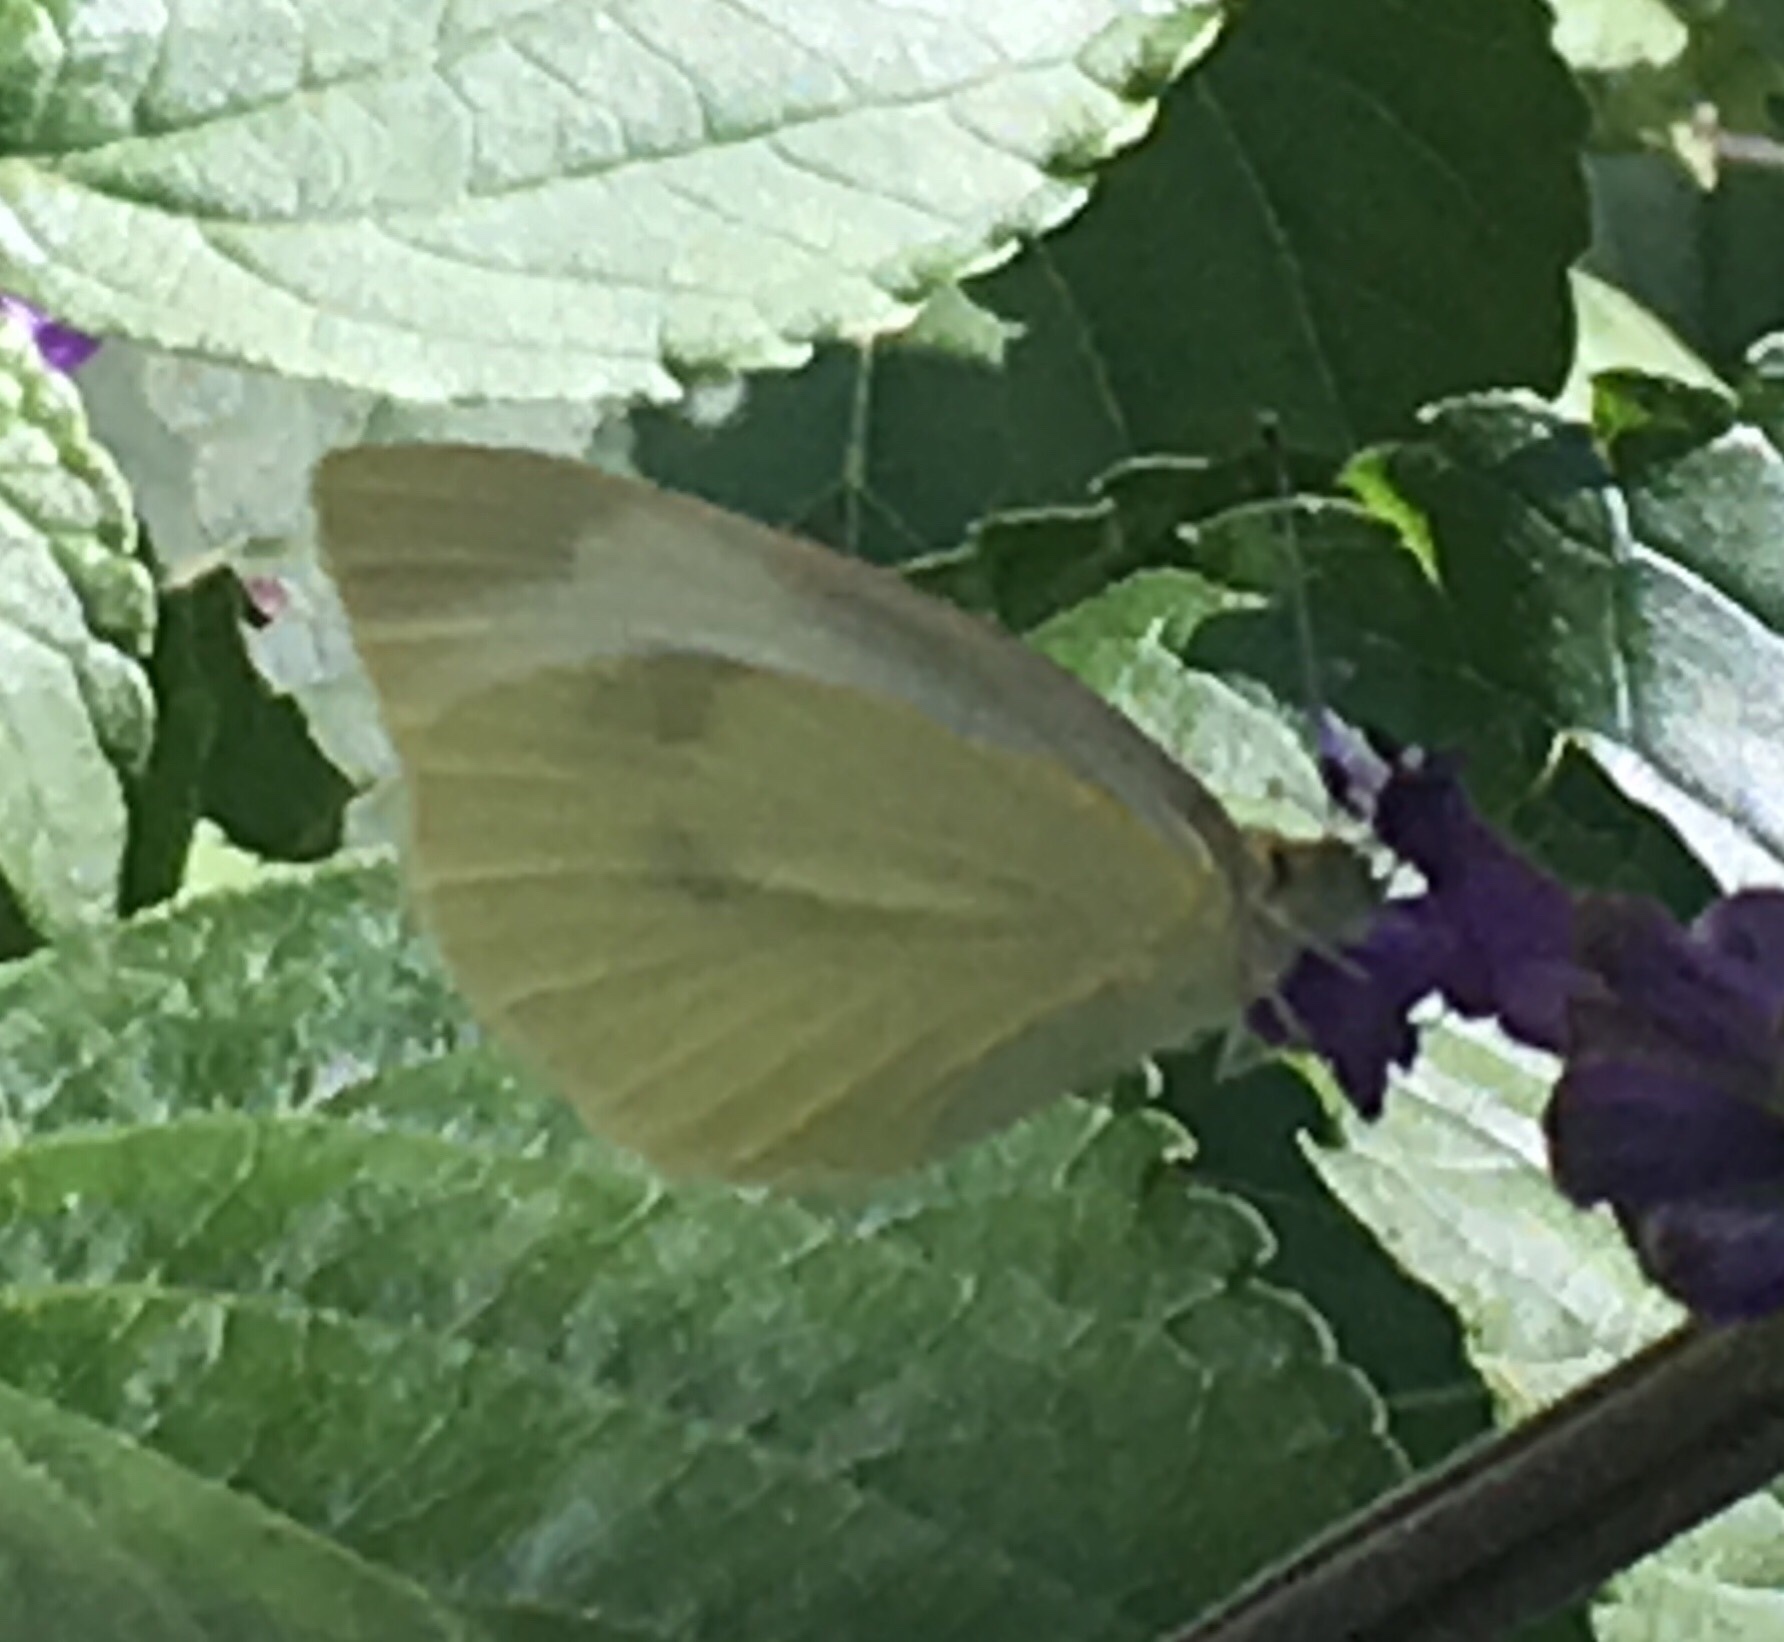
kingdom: Animalia
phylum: Arthropoda
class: Insecta
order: Lepidoptera
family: Pieridae
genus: Pieris
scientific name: Pieris rapae
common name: Small white
